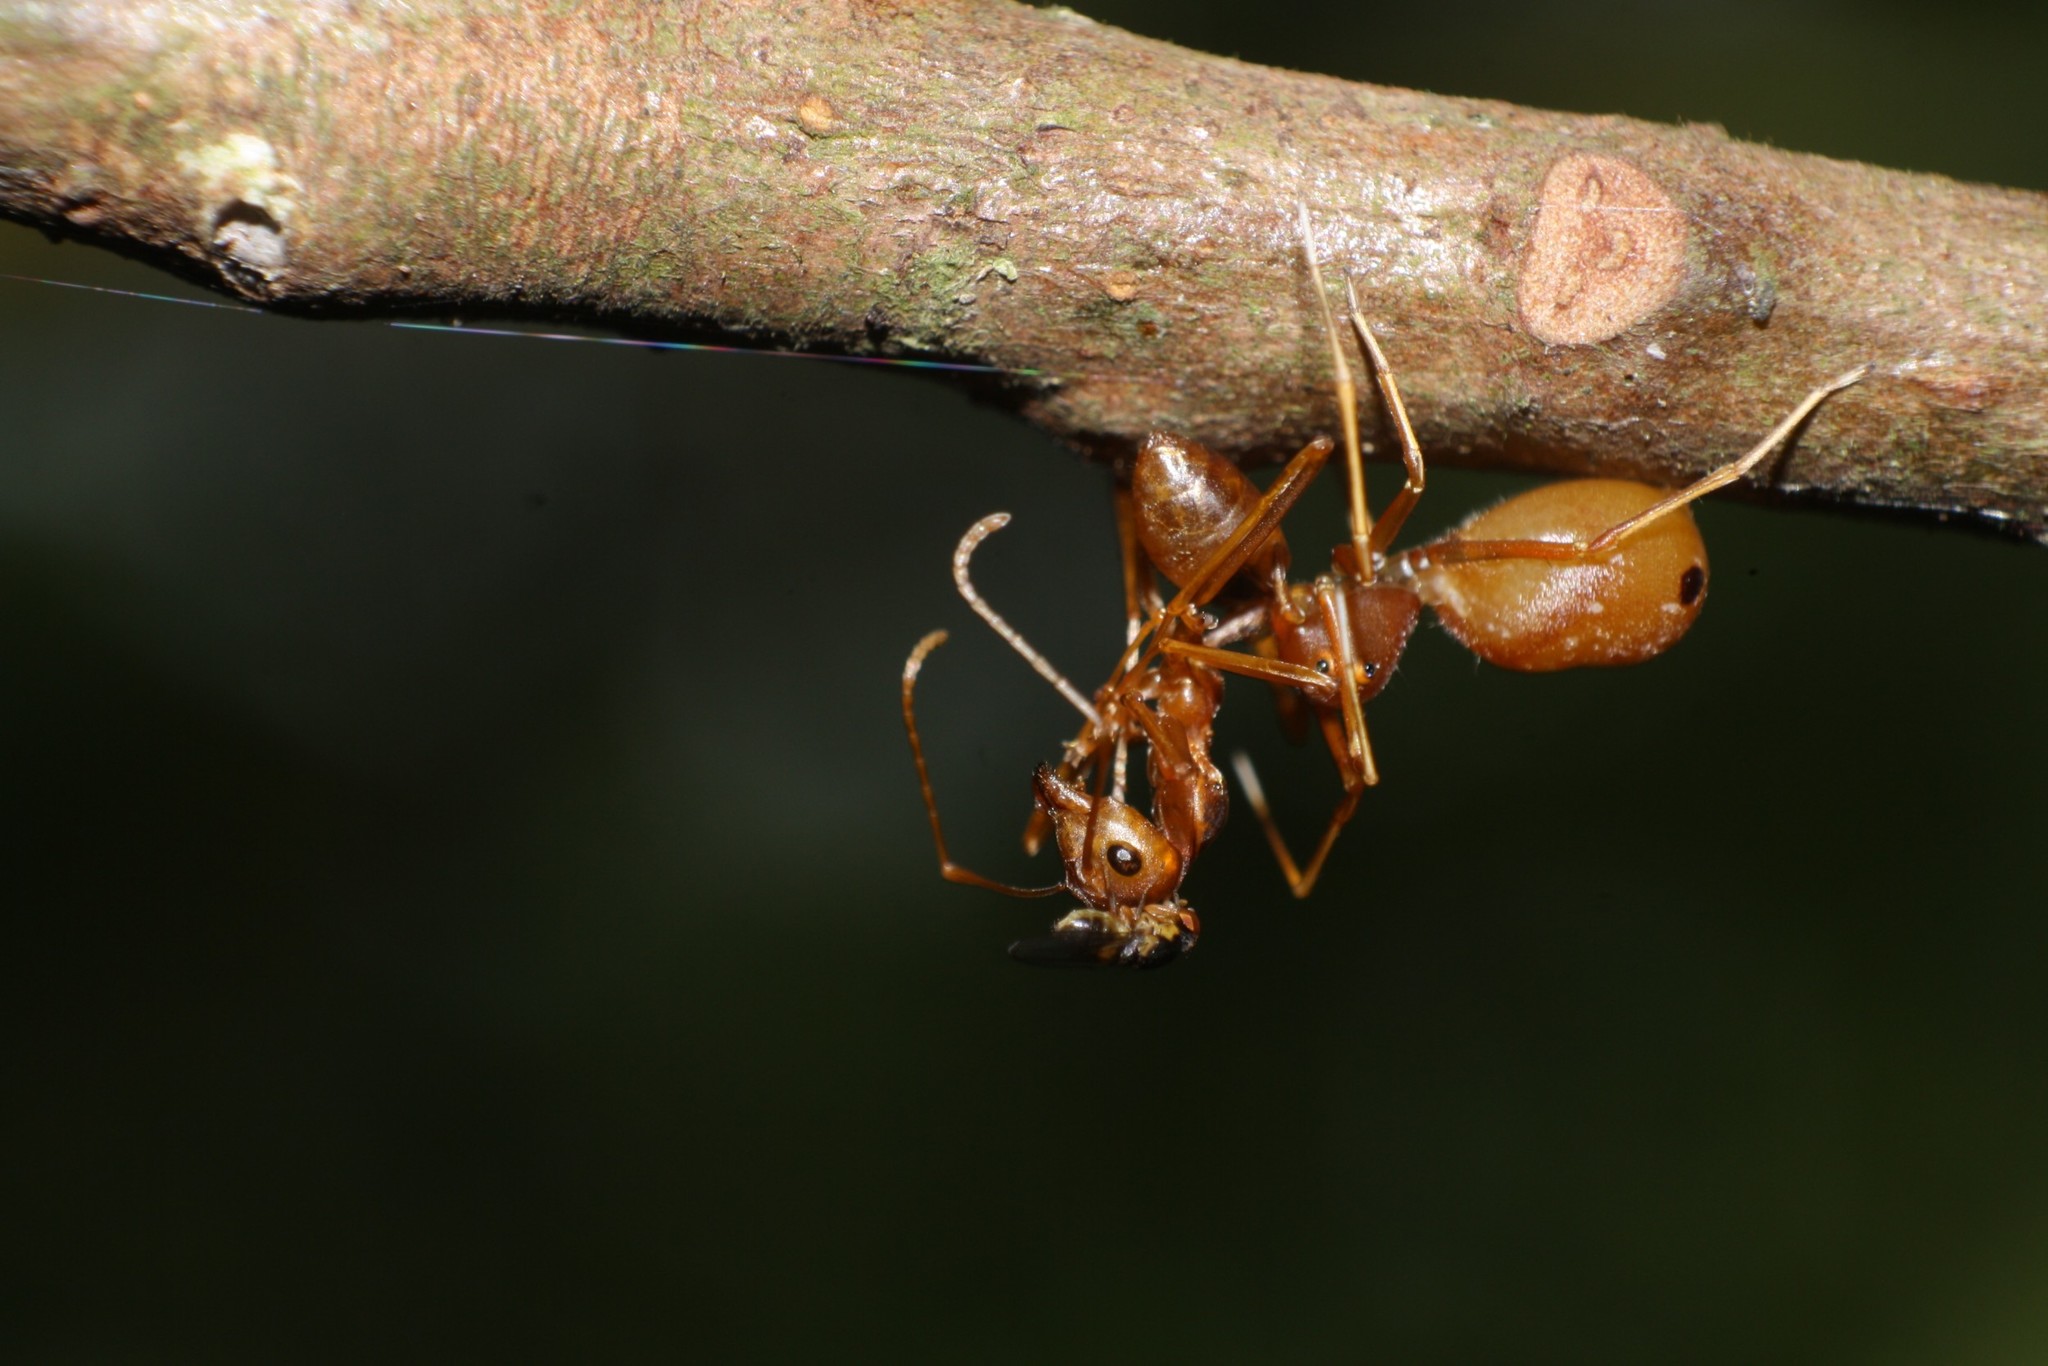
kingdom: Animalia
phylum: Arthropoda
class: Insecta
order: Hymenoptera
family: Formicidae
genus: Oecophylla
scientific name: Oecophylla smaragdina
